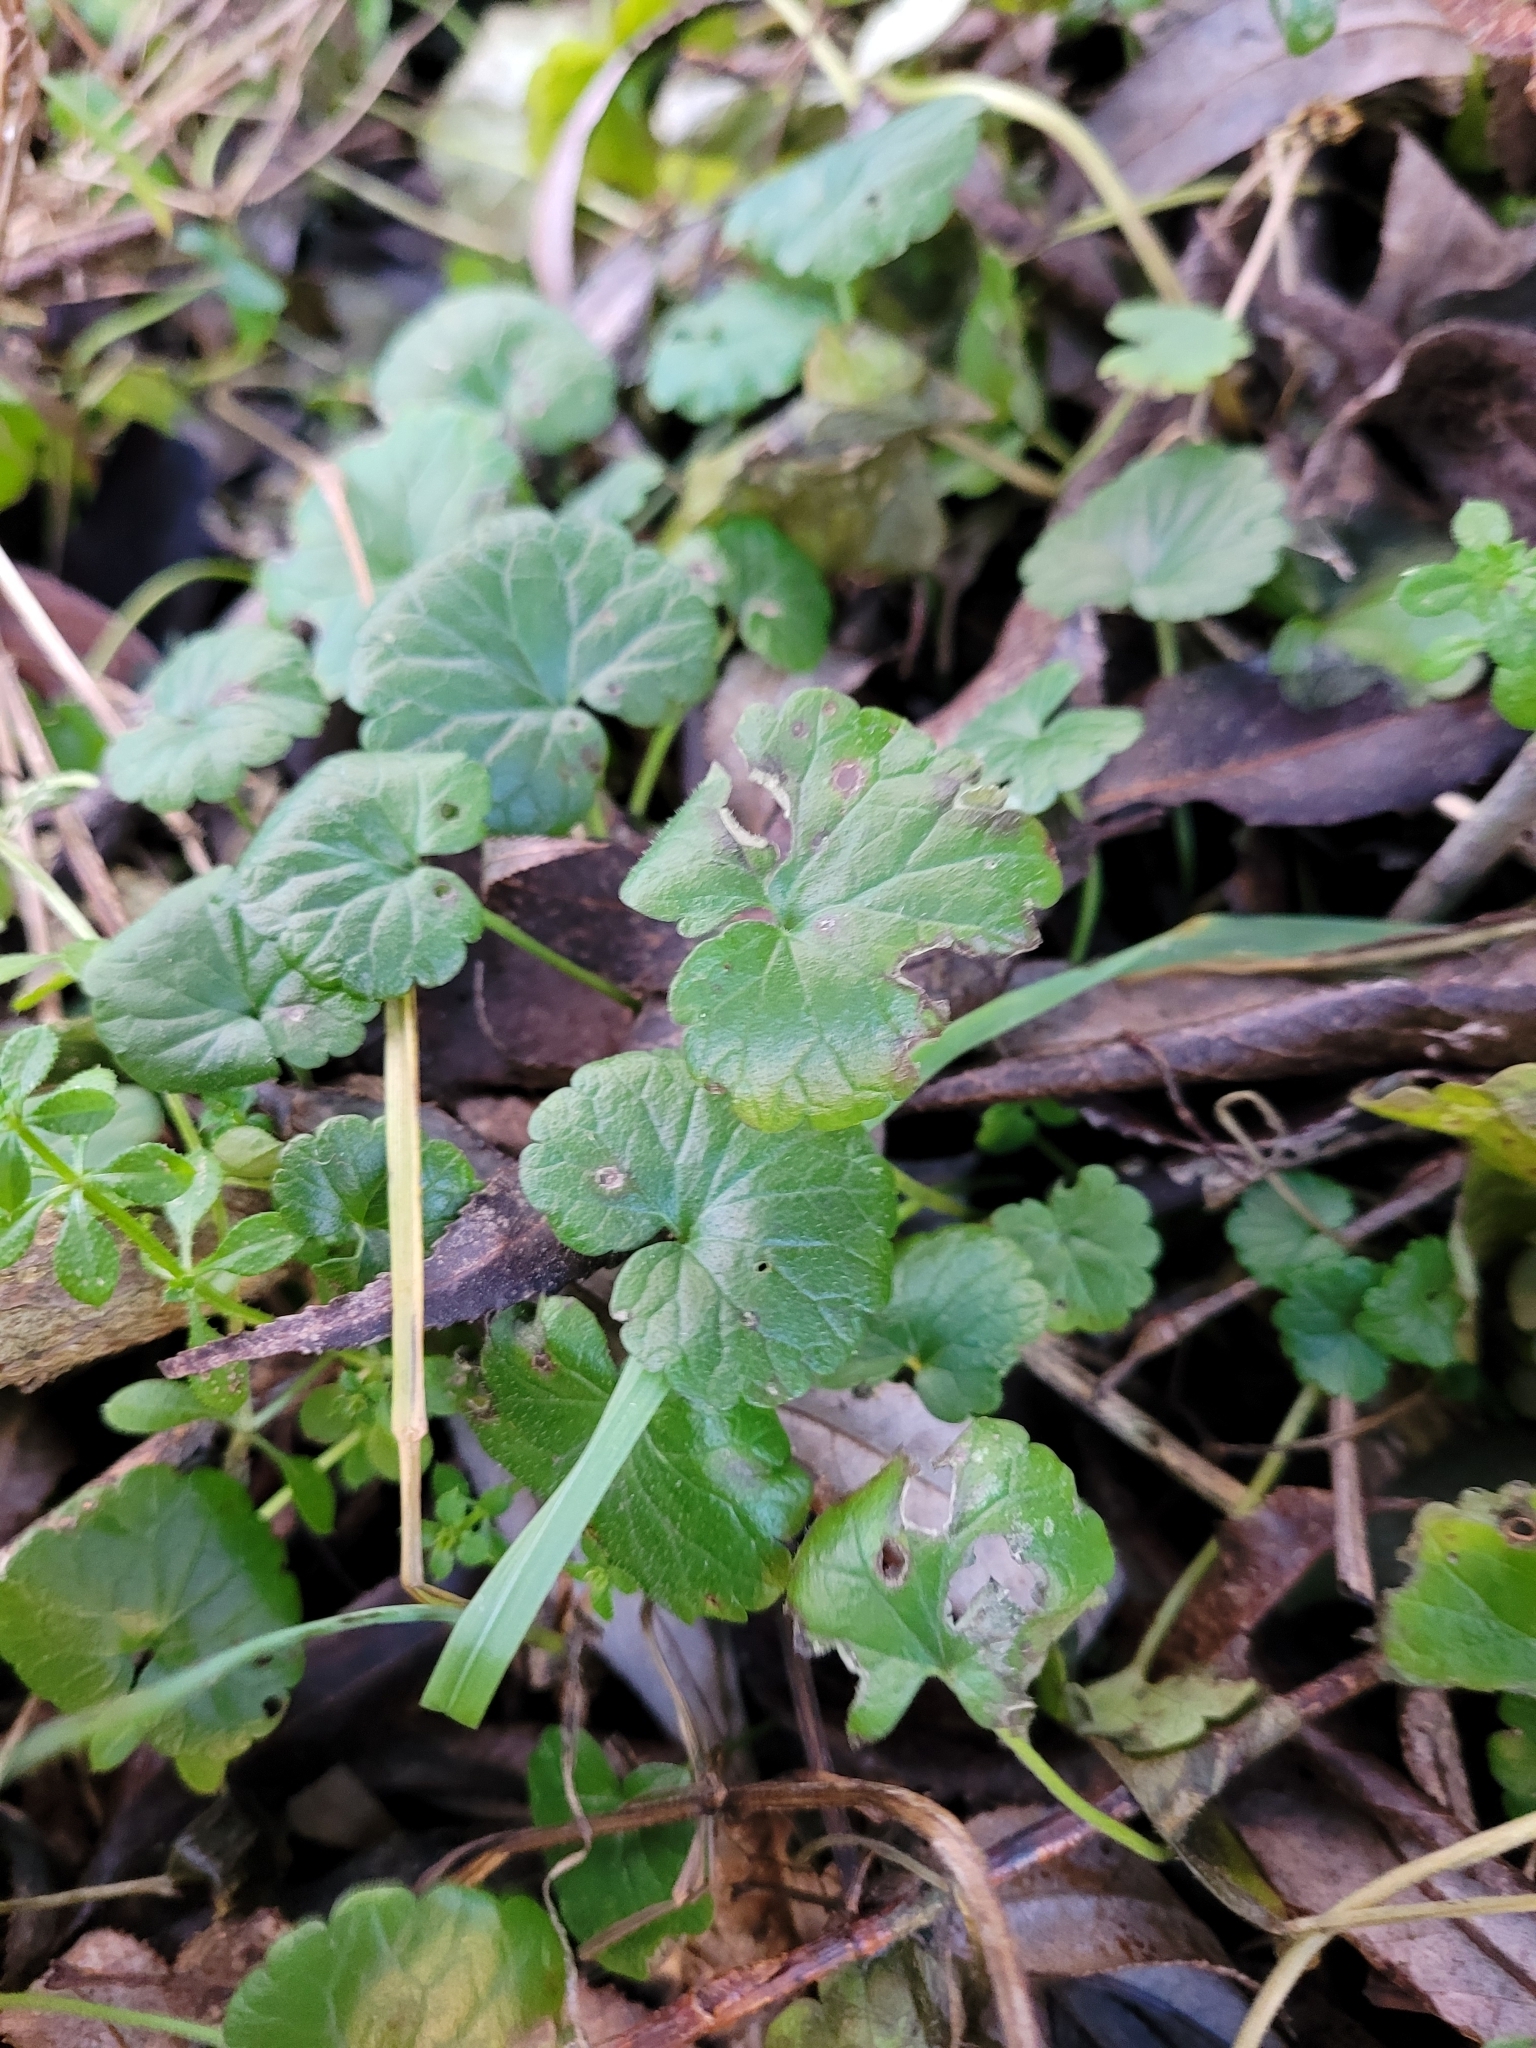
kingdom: Plantae
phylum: Tracheophyta
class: Magnoliopsida
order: Lamiales
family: Lamiaceae
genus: Glechoma
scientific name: Glechoma hederacea
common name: Ground ivy
